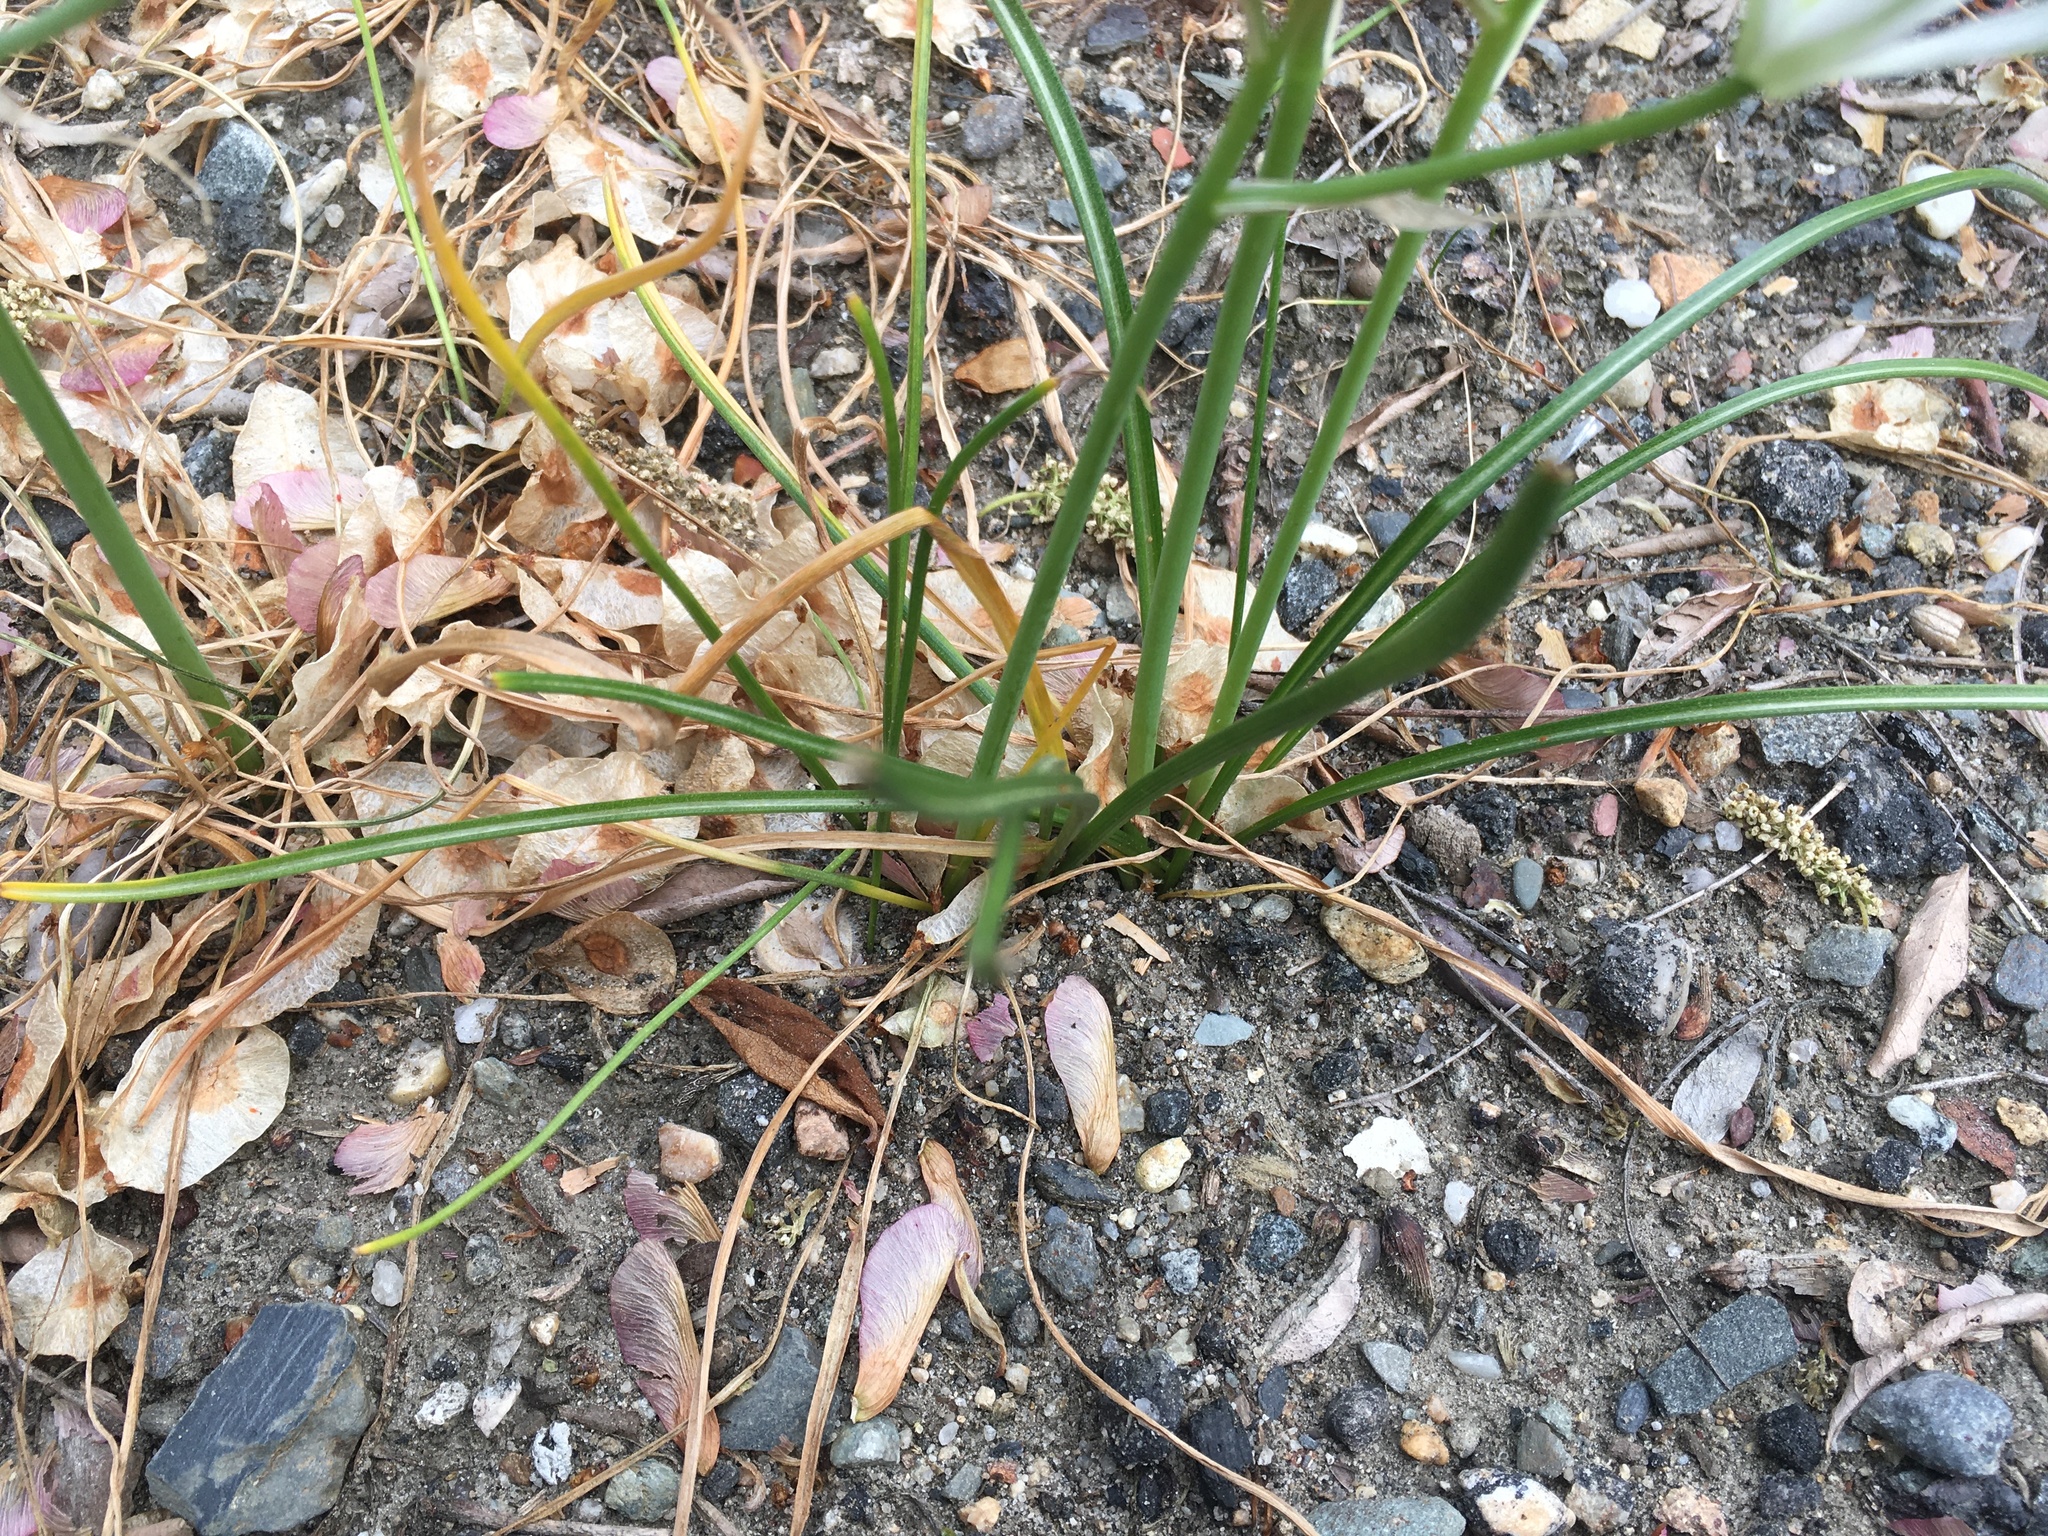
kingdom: Plantae
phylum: Tracheophyta
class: Liliopsida
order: Asparagales
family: Asparagaceae
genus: Ornithogalum
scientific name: Ornithogalum umbellatum
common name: Garden star-of-bethlehem
